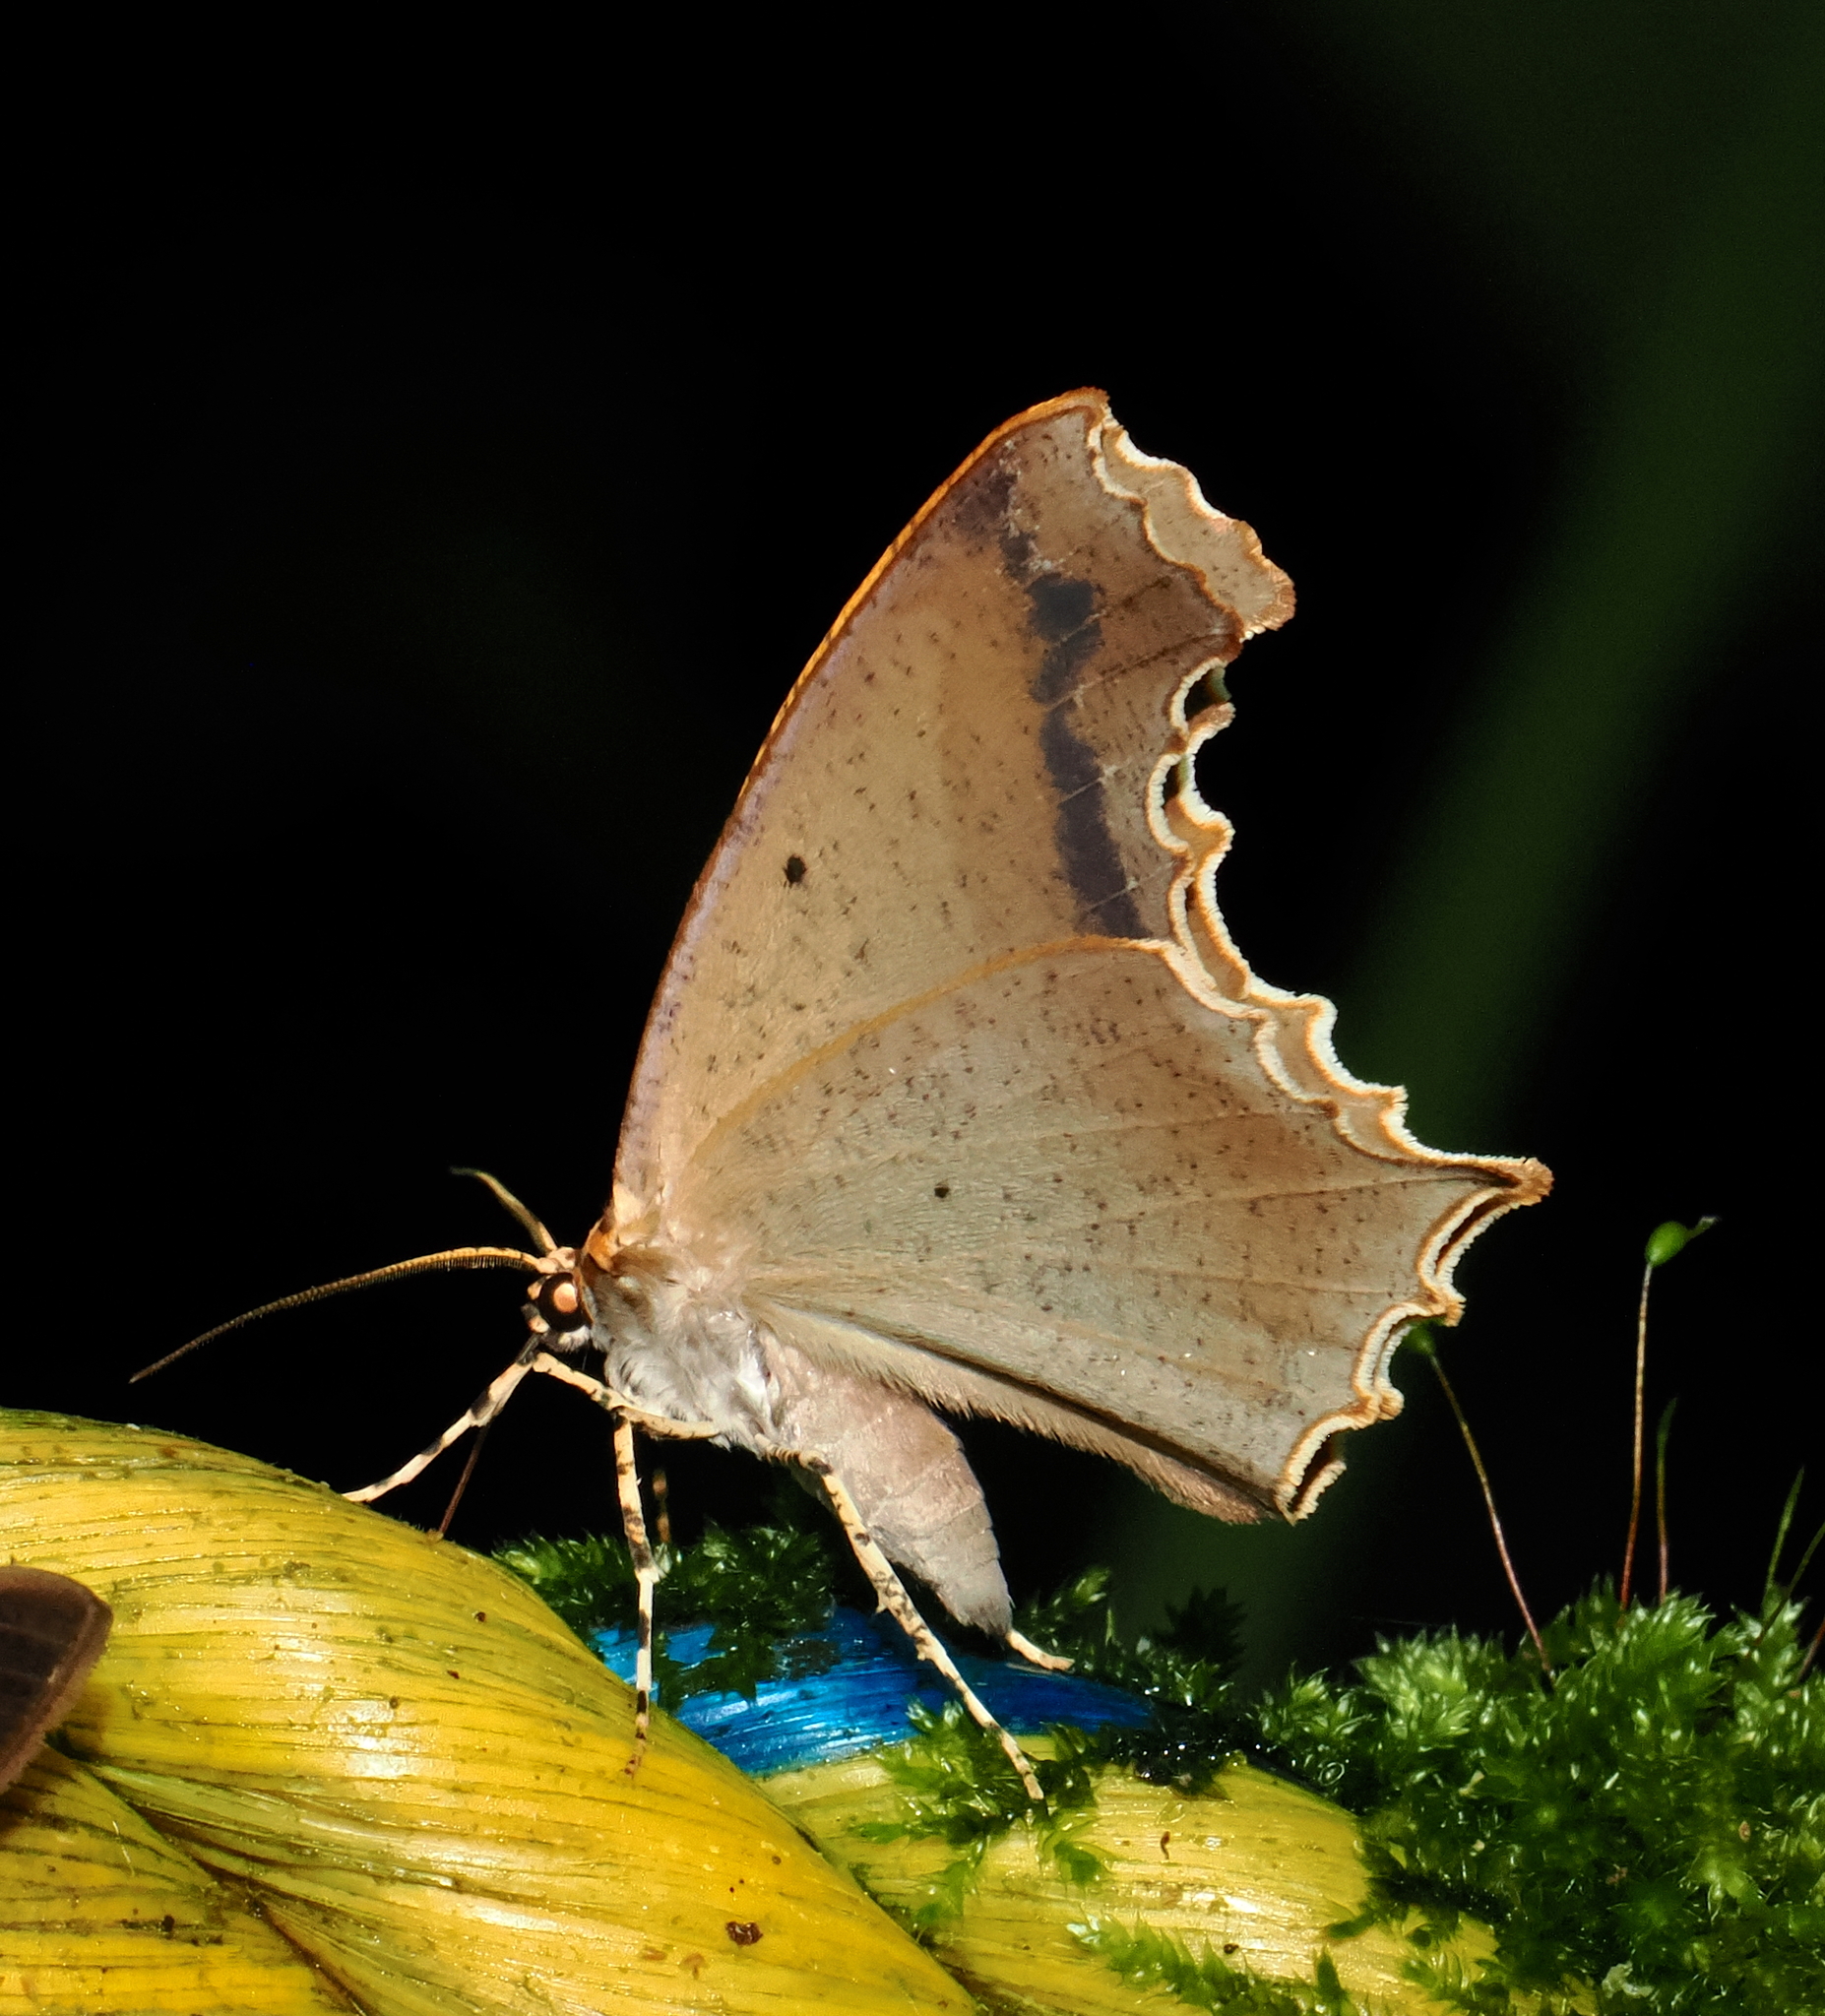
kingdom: Animalia
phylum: Arthropoda
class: Insecta
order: Lepidoptera
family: Geometridae
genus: Eutomopepla
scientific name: Eutomopepla rogenhoferi
